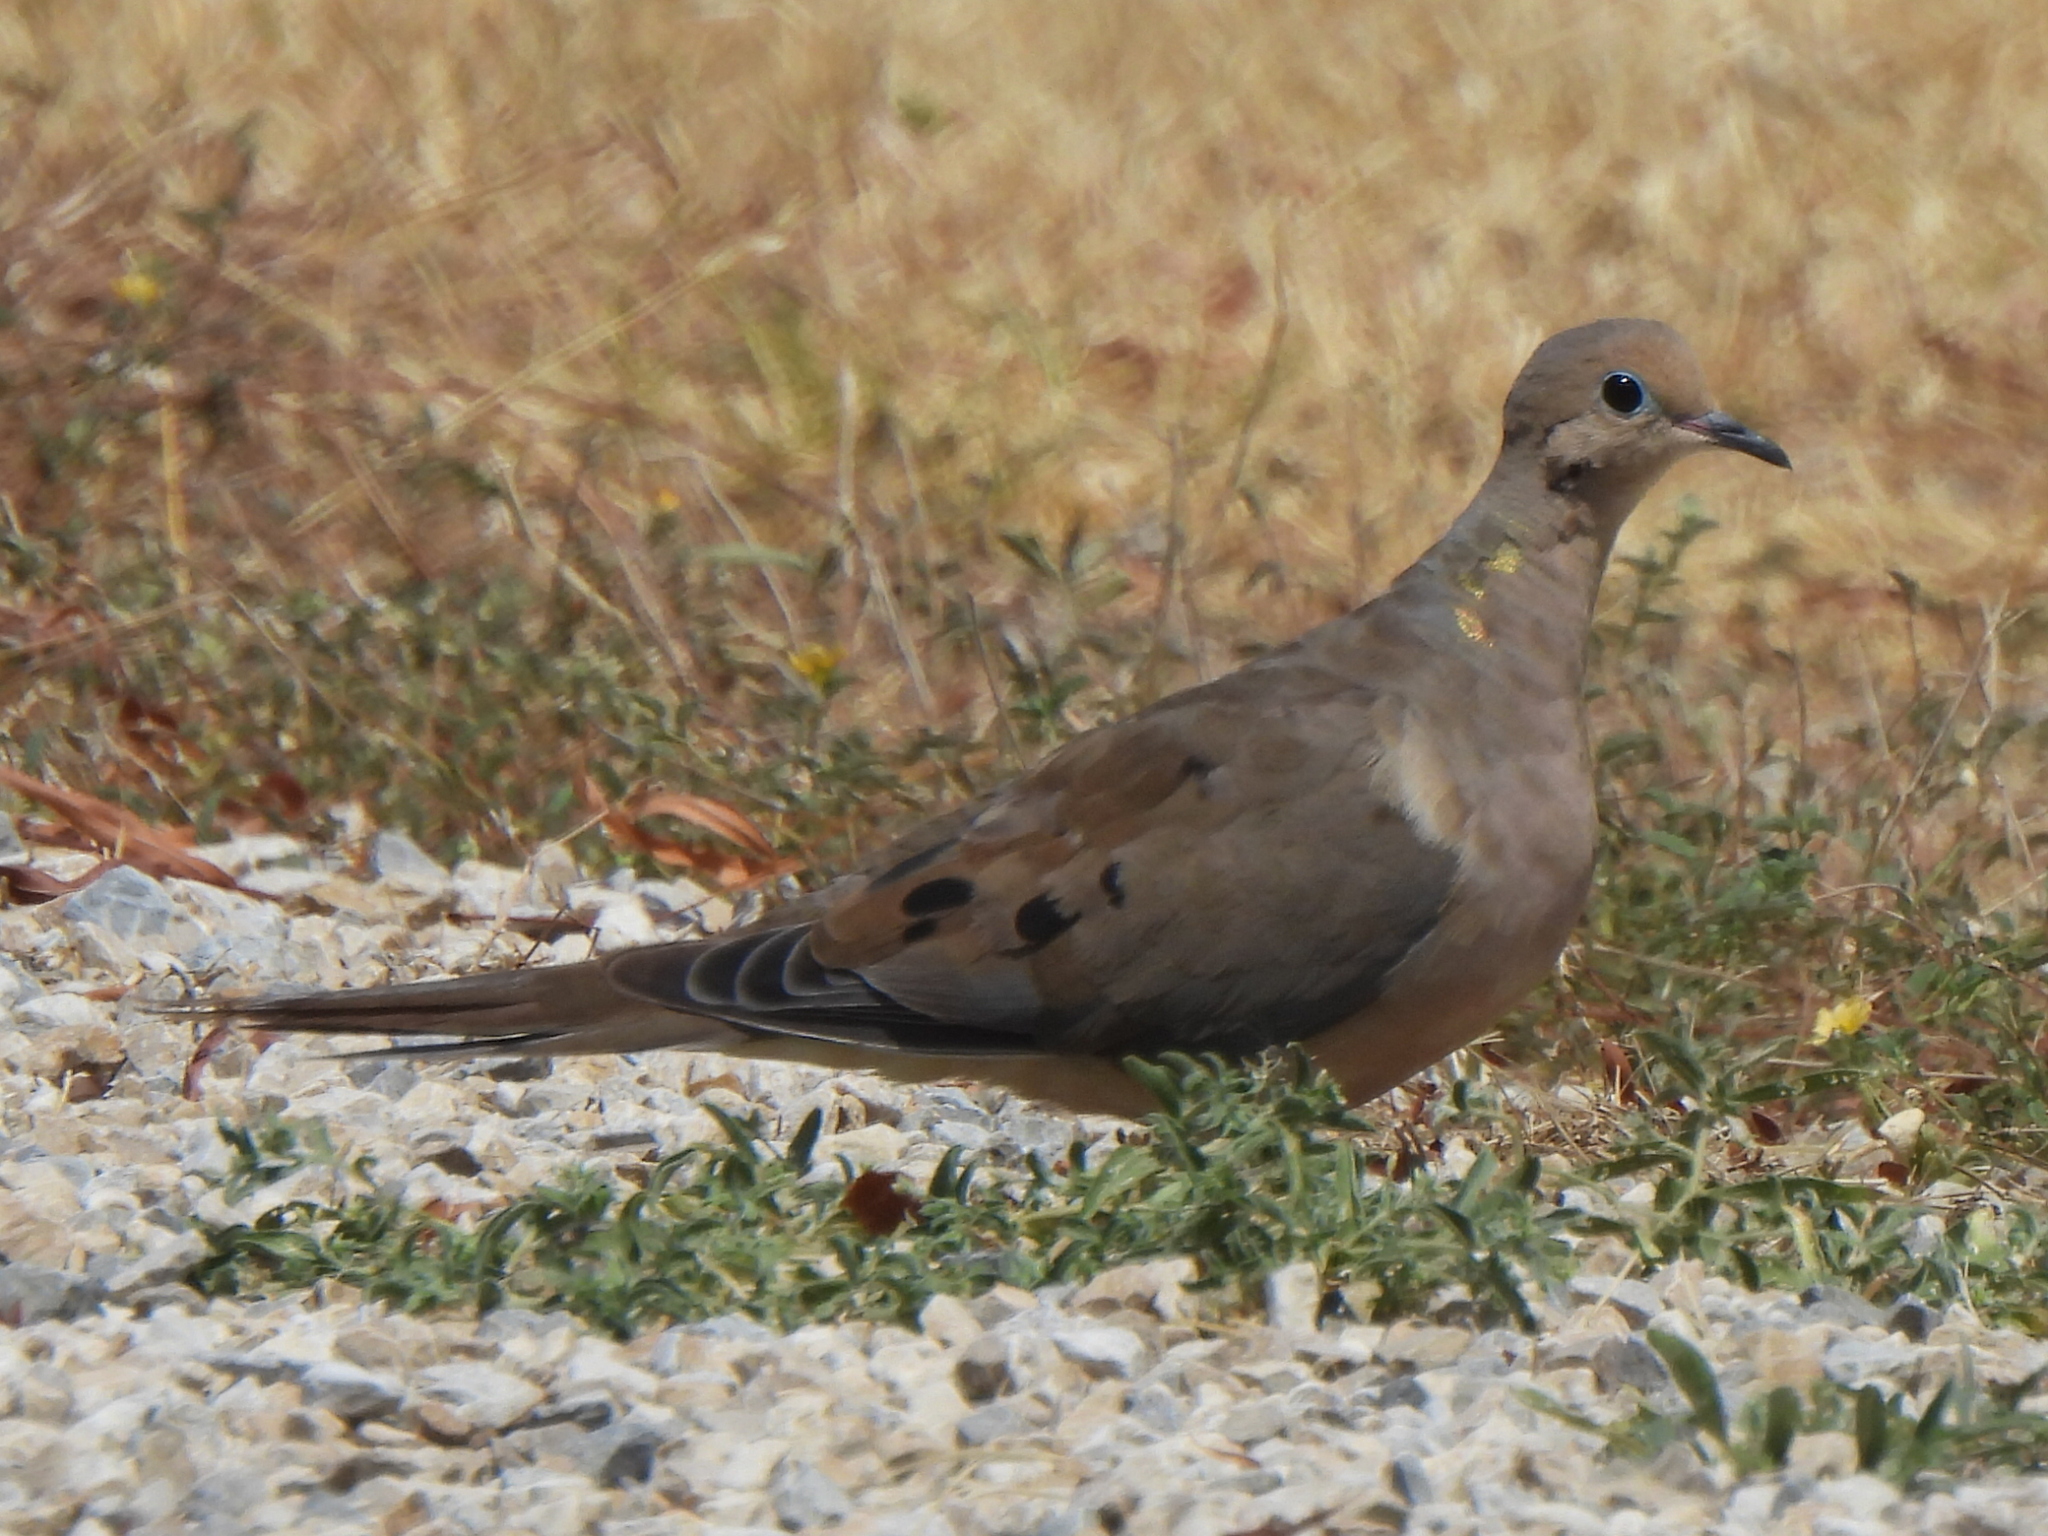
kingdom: Animalia
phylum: Chordata
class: Aves
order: Columbiformes
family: Columbidae
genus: Zenaida
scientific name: Zenaida macroura
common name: Mourning dove
